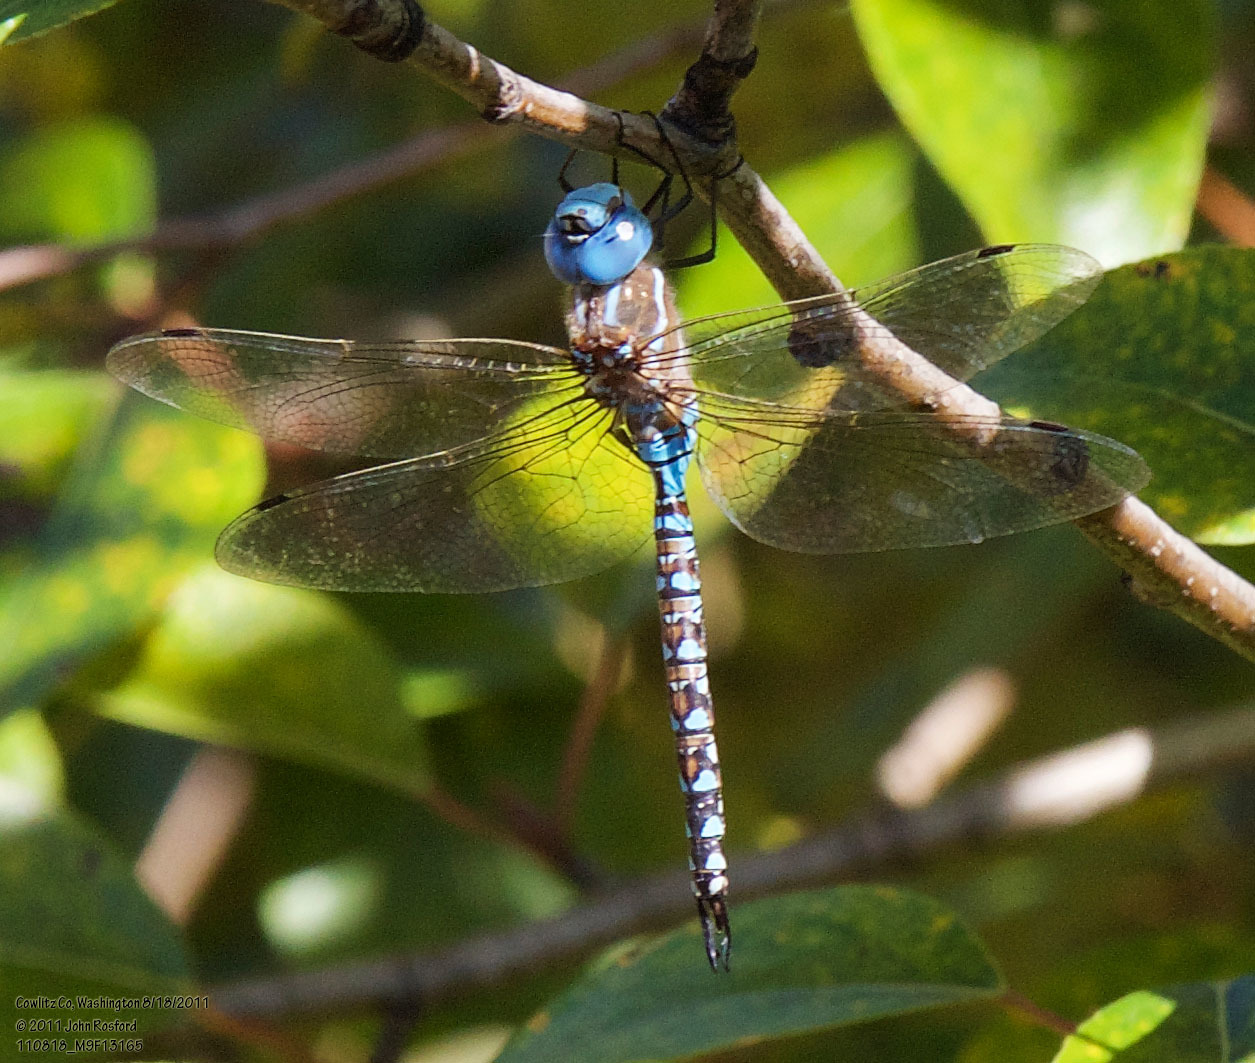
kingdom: Animalia
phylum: Arthropoda
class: Insecta
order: Odonata
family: Aeshnidae
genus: Rhionaeschna
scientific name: Rhionaeschna multicolor
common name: Blue-eyed darner
